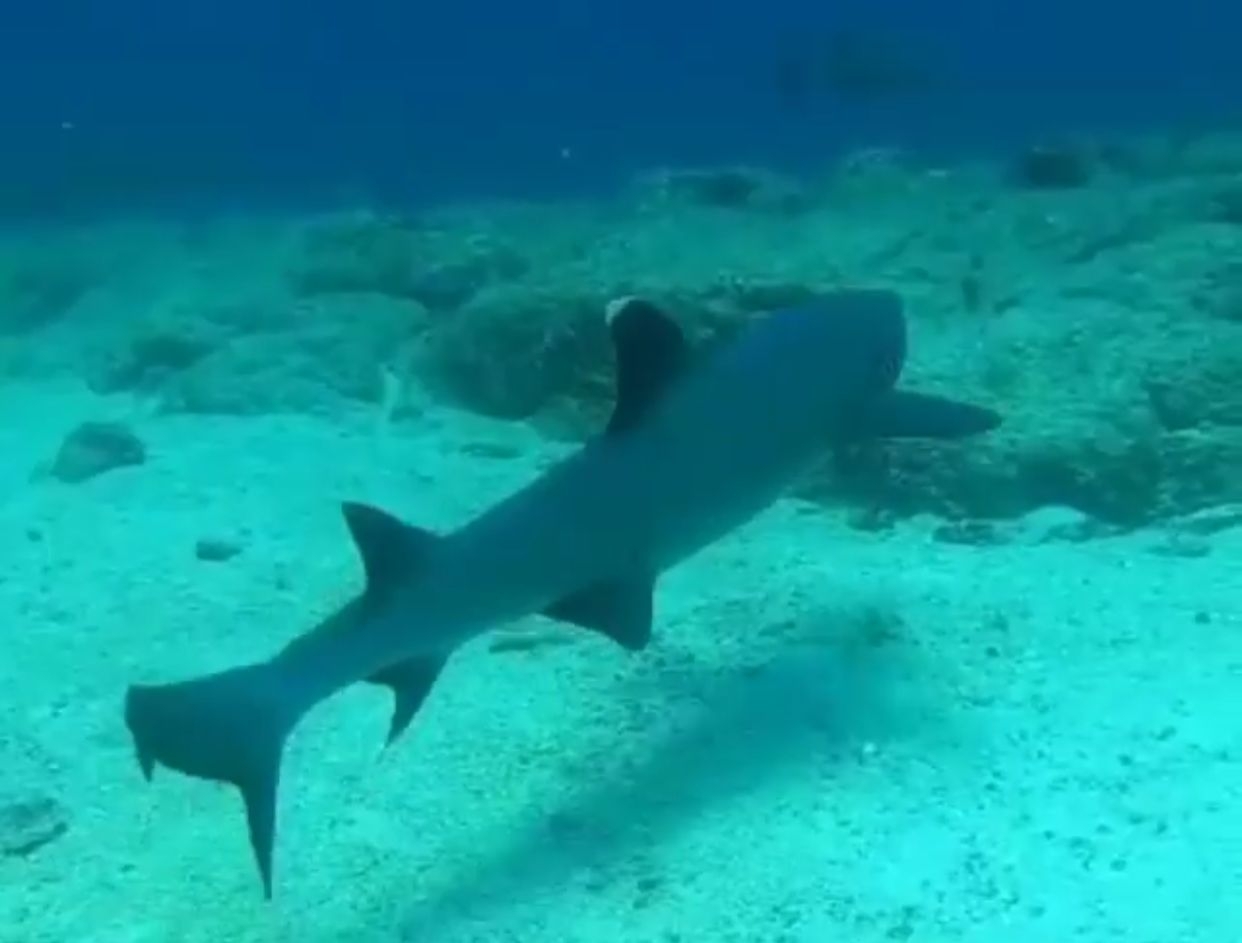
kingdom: Animalia
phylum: Chordata
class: Elasmobranchii
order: Carcharhiniformes
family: Carcharhinidae
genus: Triaenodon
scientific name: Triaenodon obesus
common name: Whitetip reef shark
